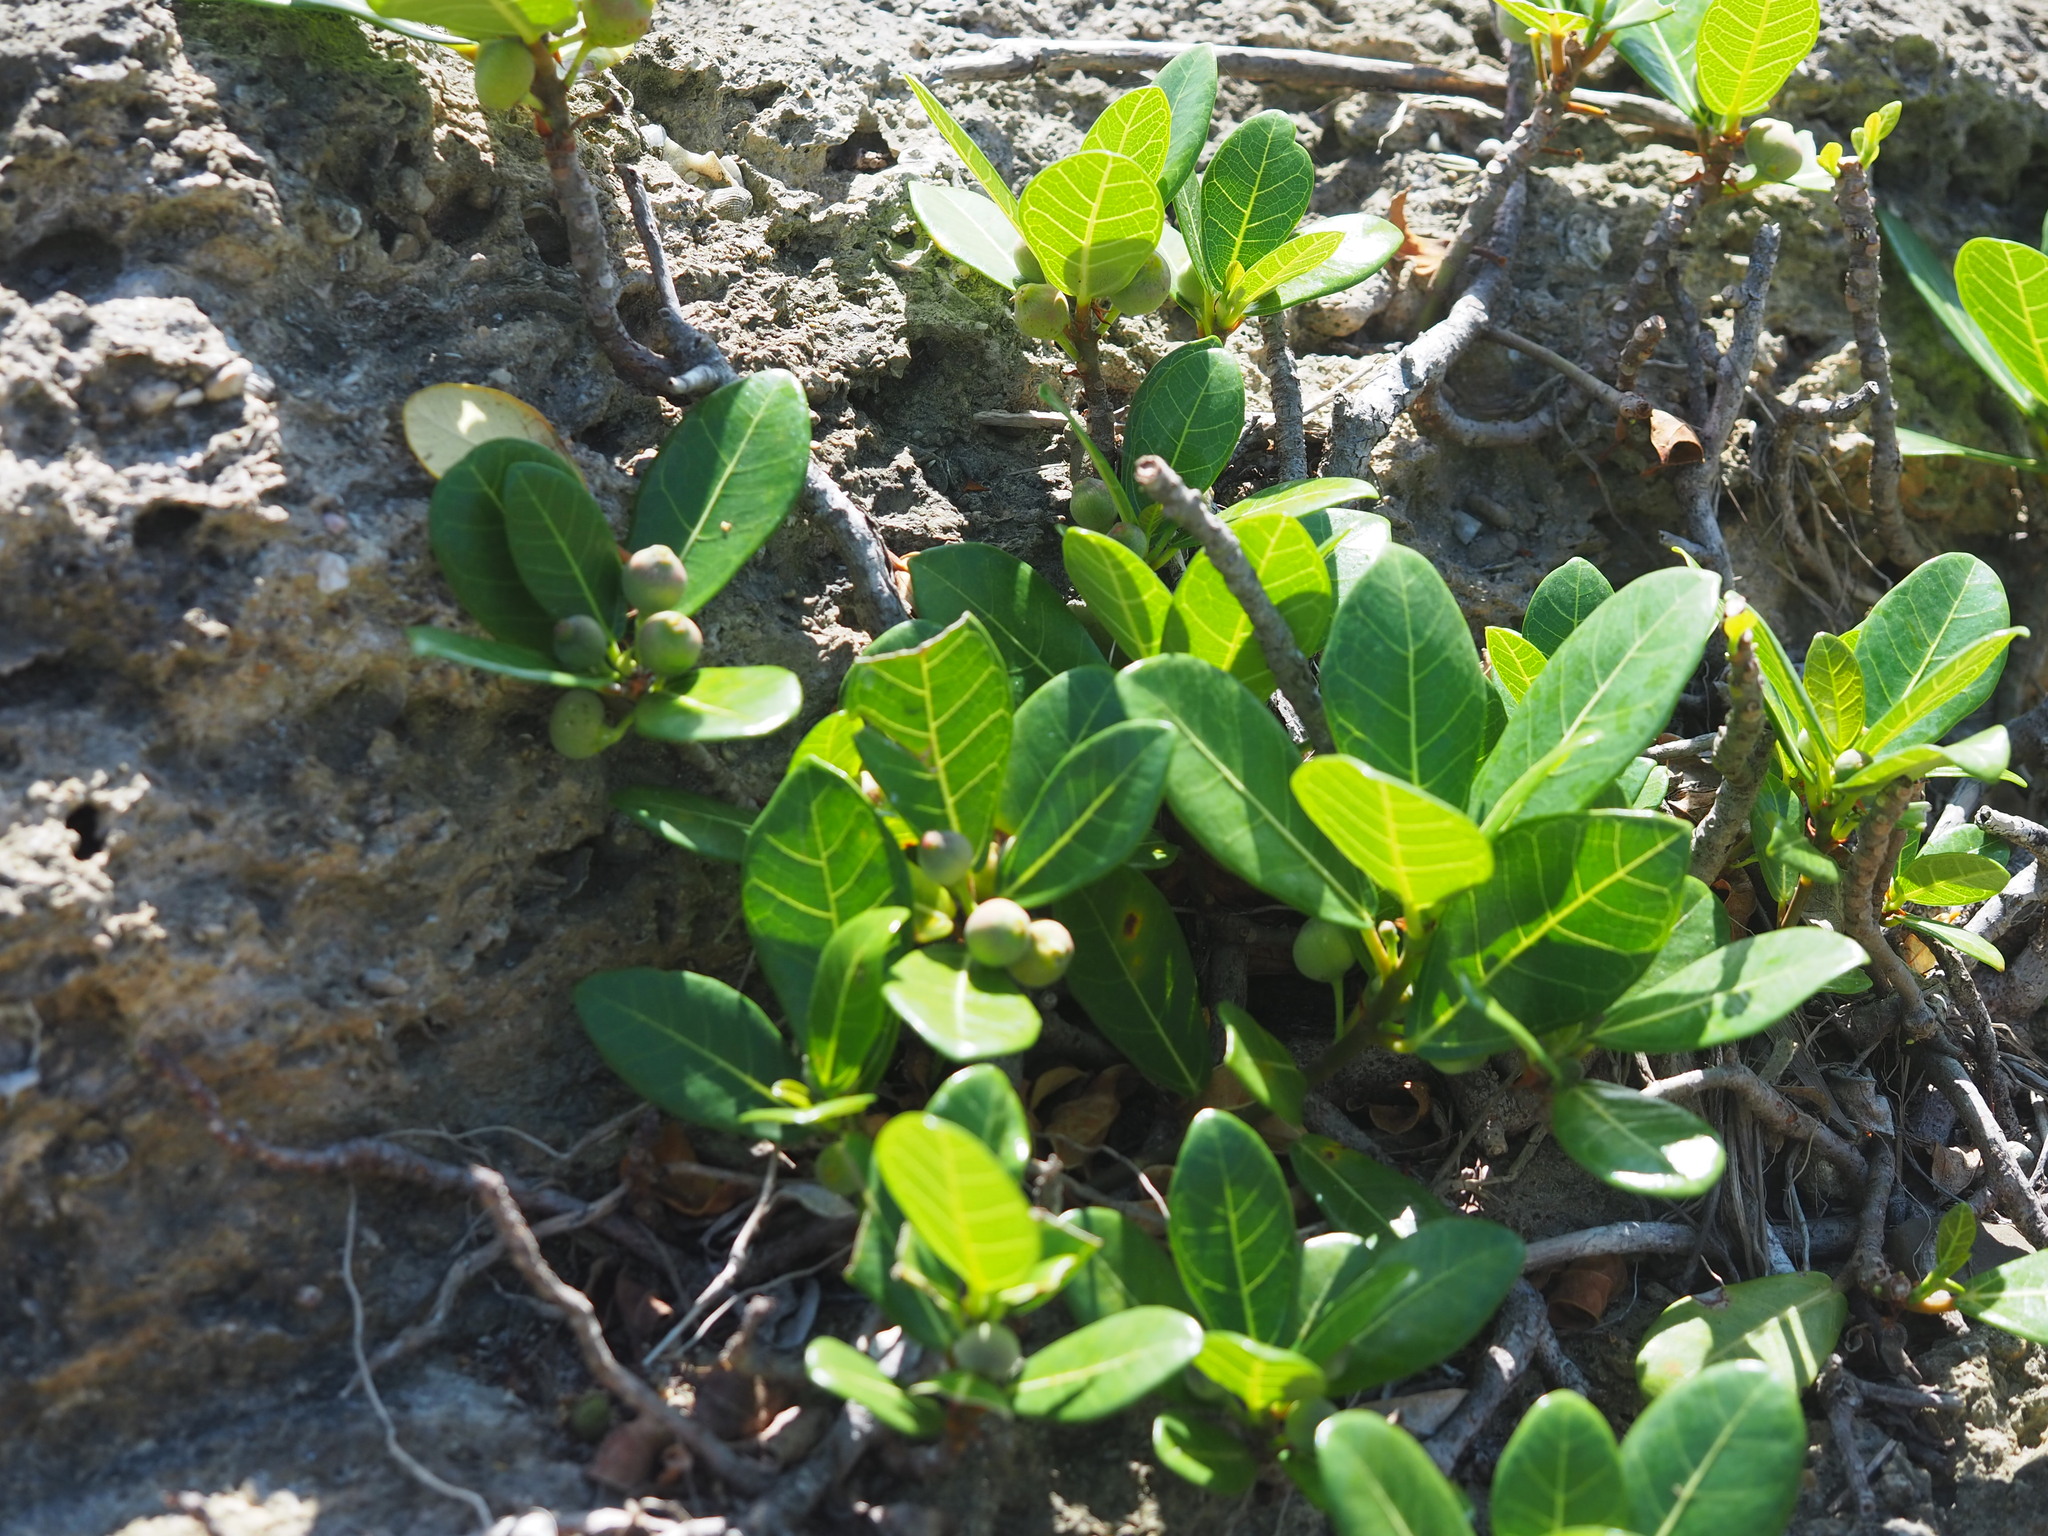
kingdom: Plantae
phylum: Tracheophyta
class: Magnoliopsida
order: Rosales
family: Moraceae
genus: Ficus
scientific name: Ficus pedunculosa
